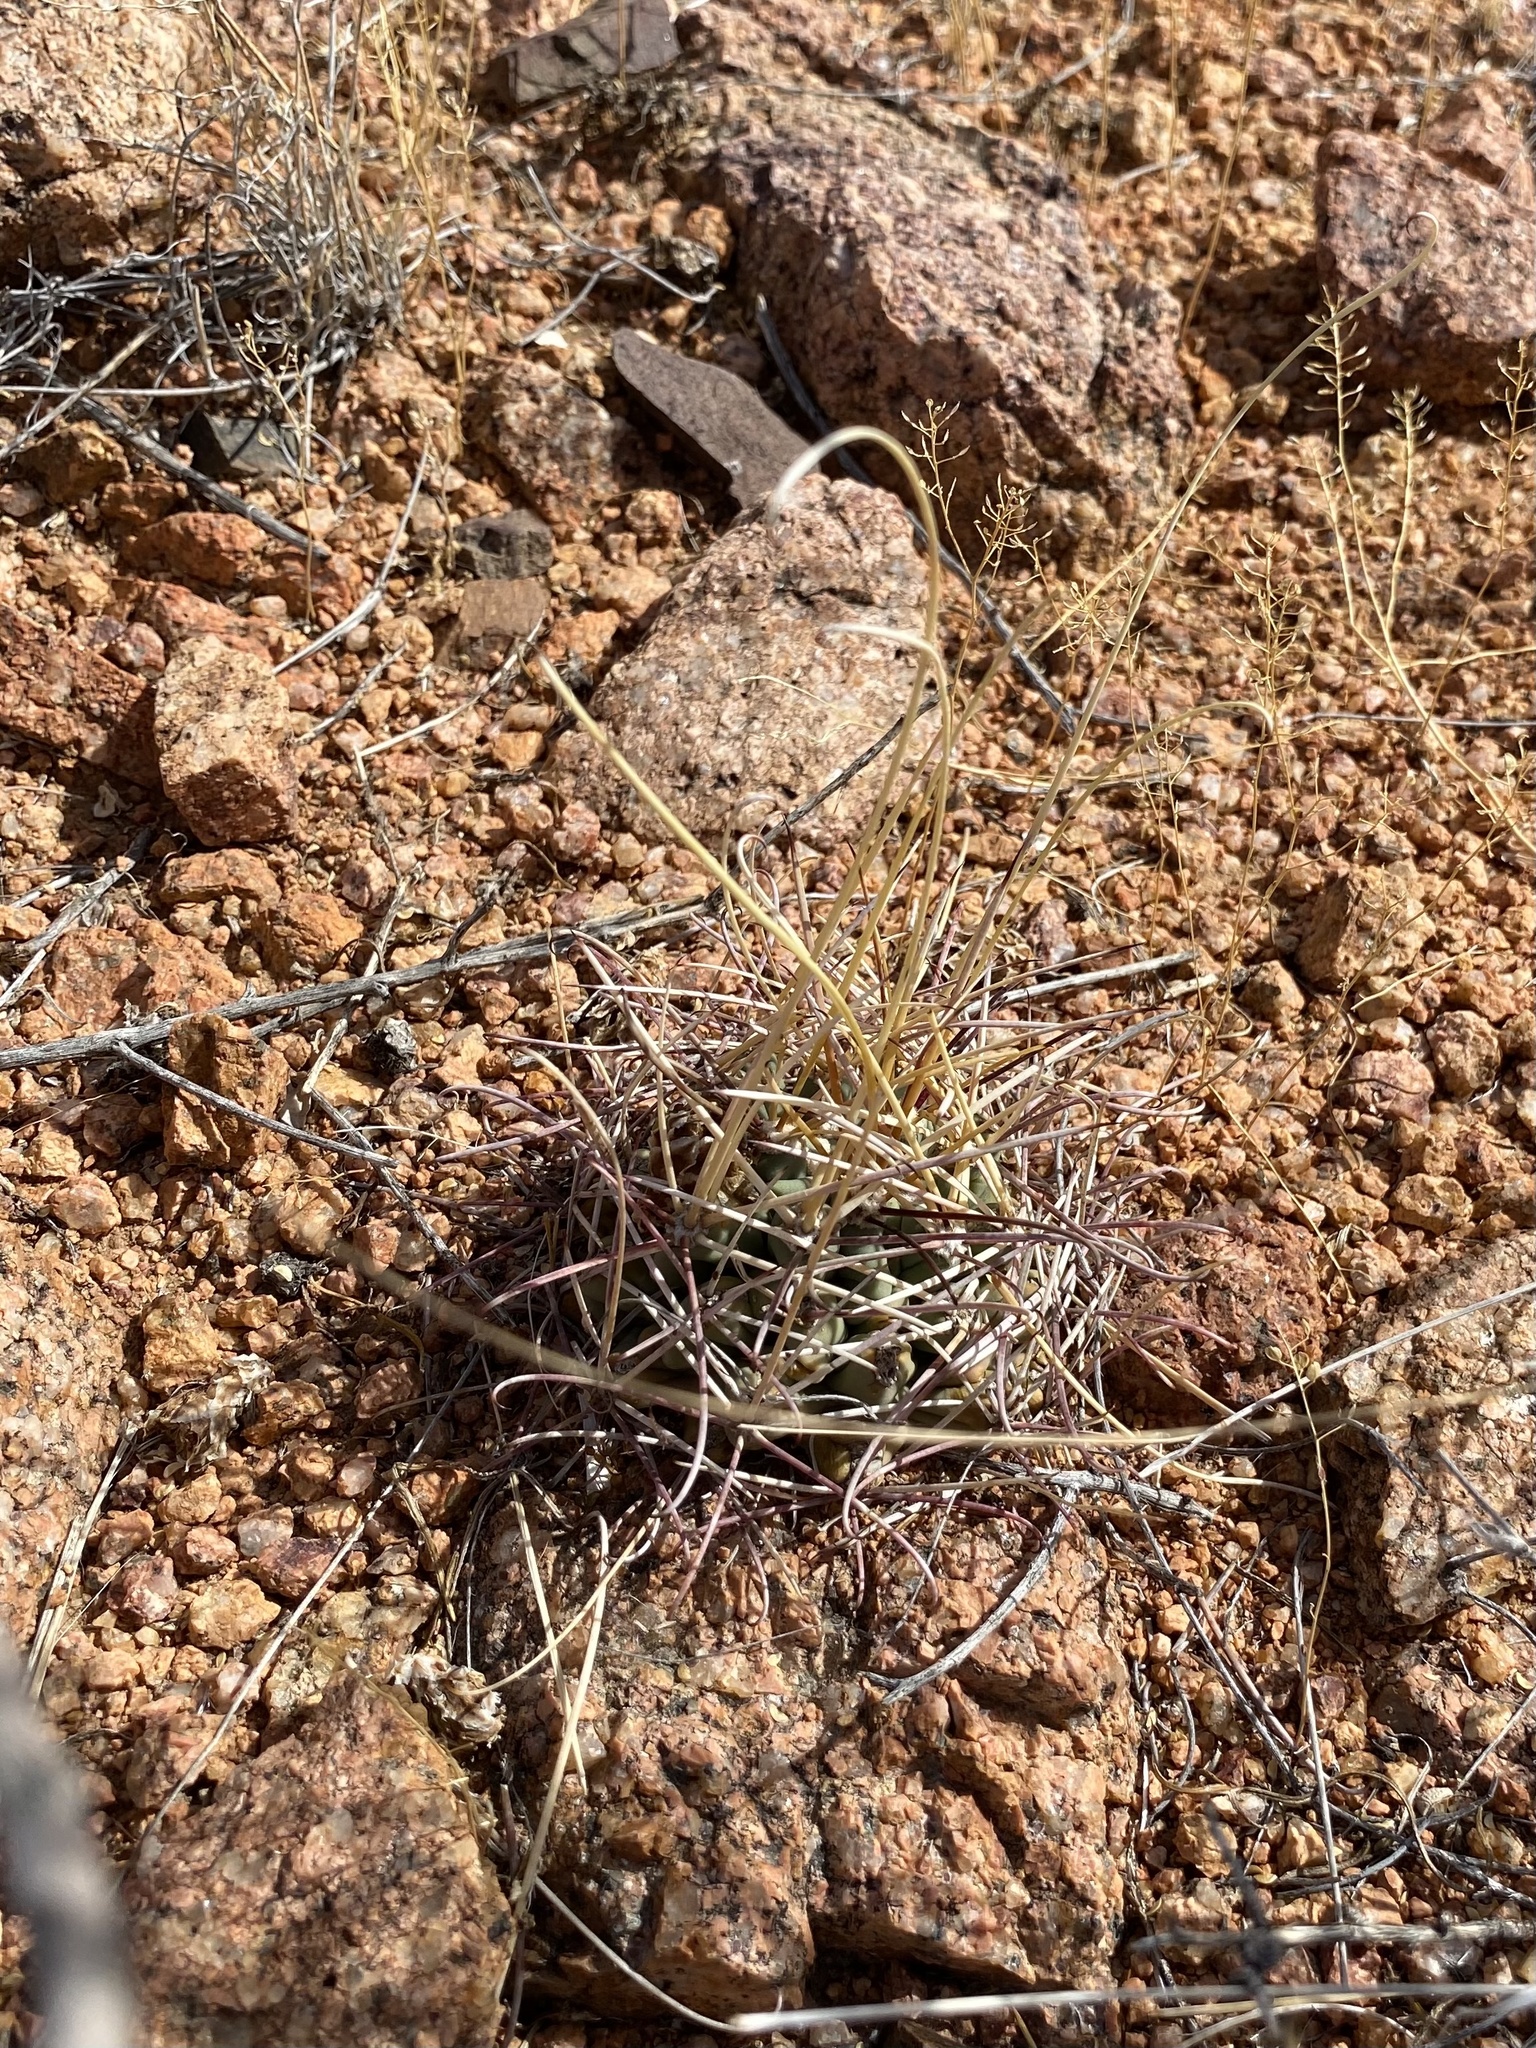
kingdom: Plantae
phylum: Tracheophyta
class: Magnoliopsida
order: Caryophyllales
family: Cactaceae
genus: Ferocactus
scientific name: Ferocactus uncinatus
